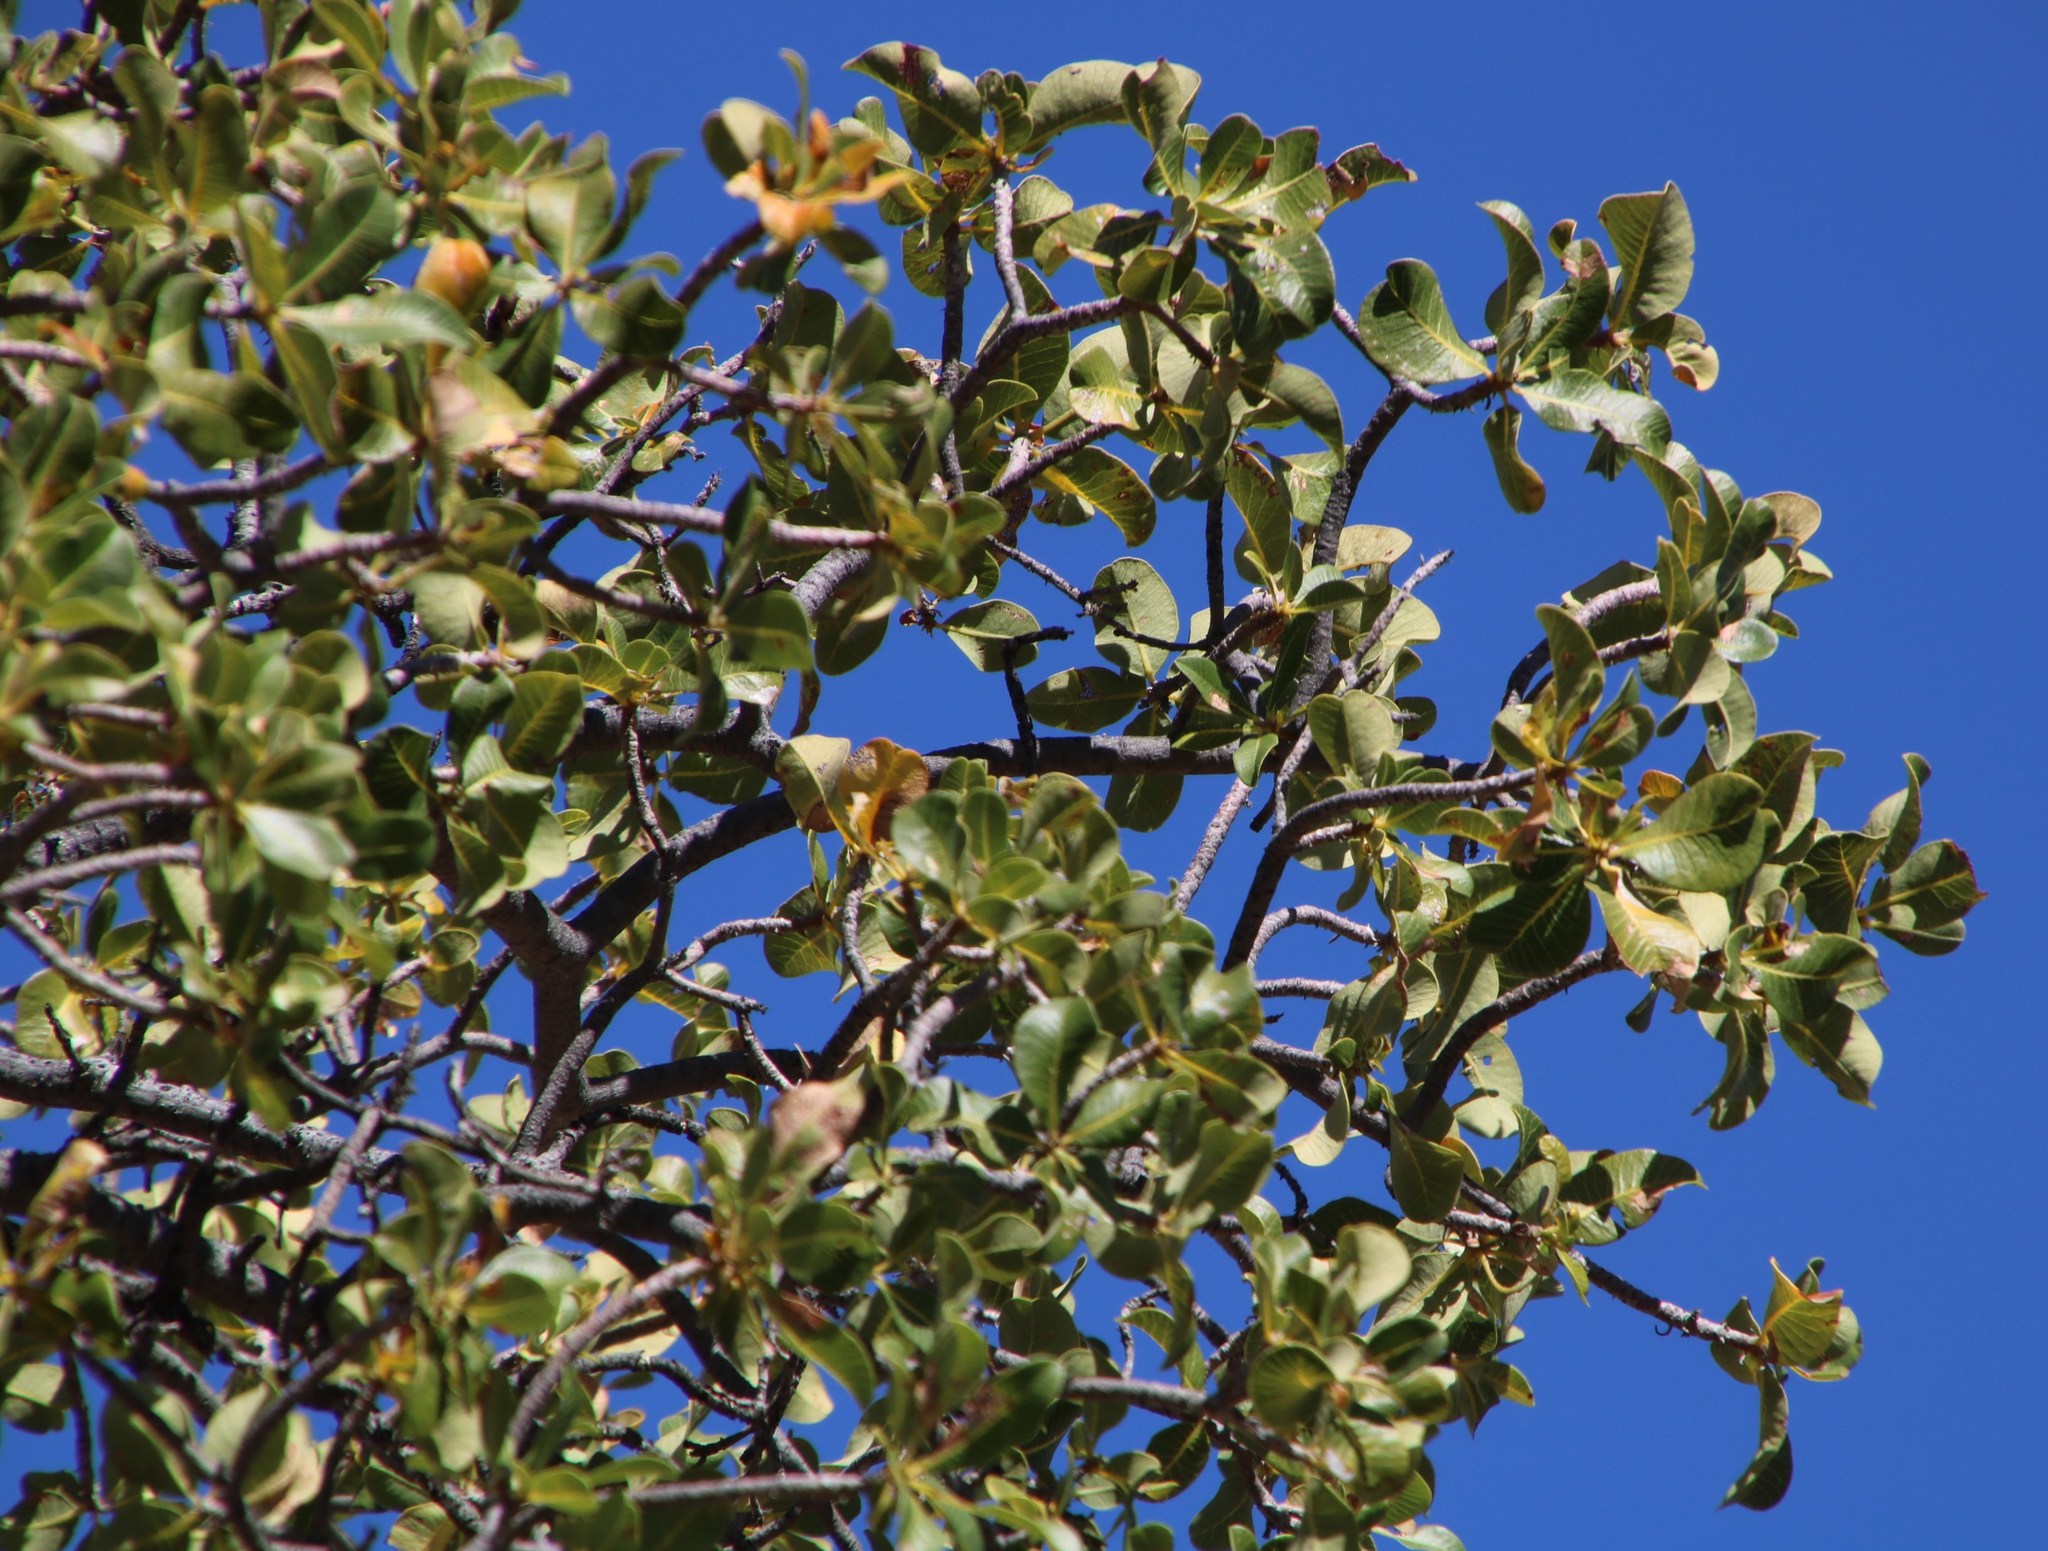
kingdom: Plantae
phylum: Tracheophyta
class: Magnoliopsida
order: Sapindales
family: Anacardiaceae
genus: Ozoroa
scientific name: Ozoroa dispar
